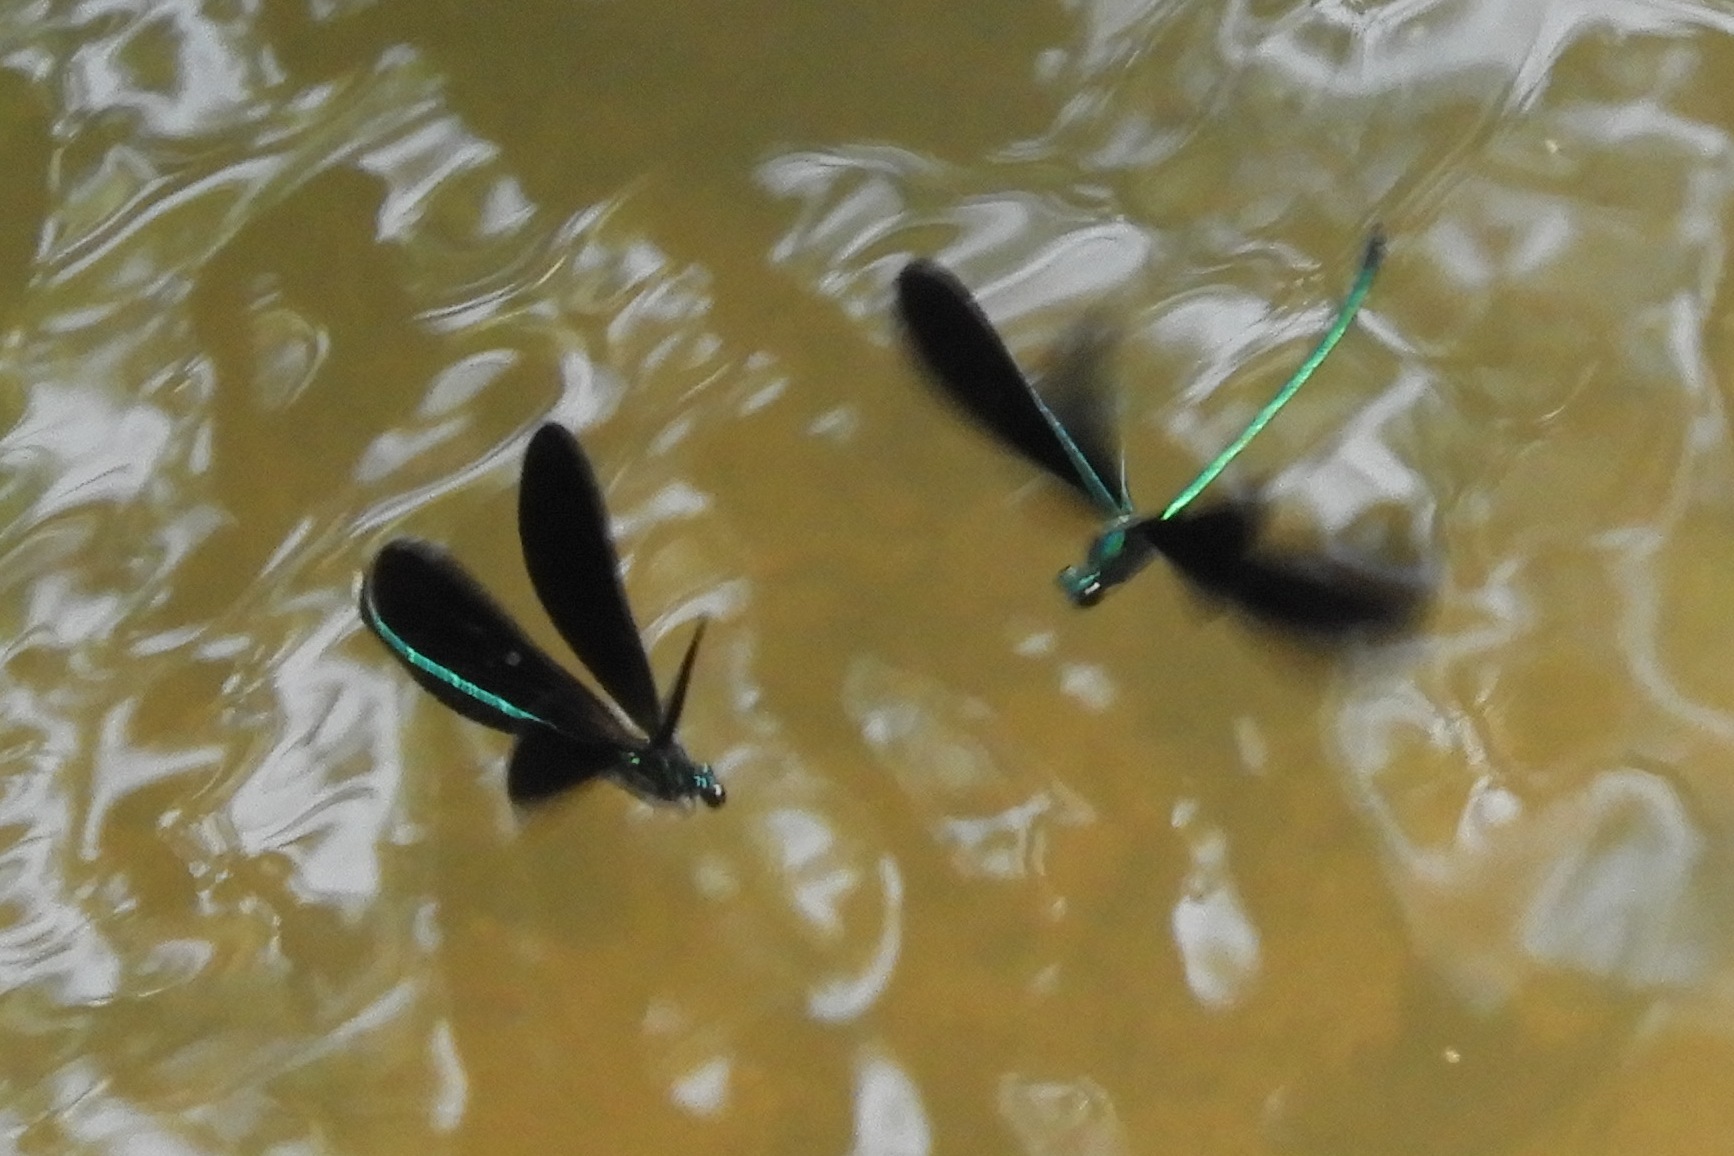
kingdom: Animalia
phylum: Arthropoda
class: Insecta
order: Odonata
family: Calopterygidae
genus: Calopteryx
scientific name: Calopteryx maculata
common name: Ebony jewelwing
